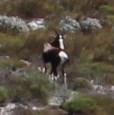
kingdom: Animalia
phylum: Chordata
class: Mammalia
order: Artiodactyla
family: Bovidae
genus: Damaliscus
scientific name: Damaliscus pygargus
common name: Bontebok
